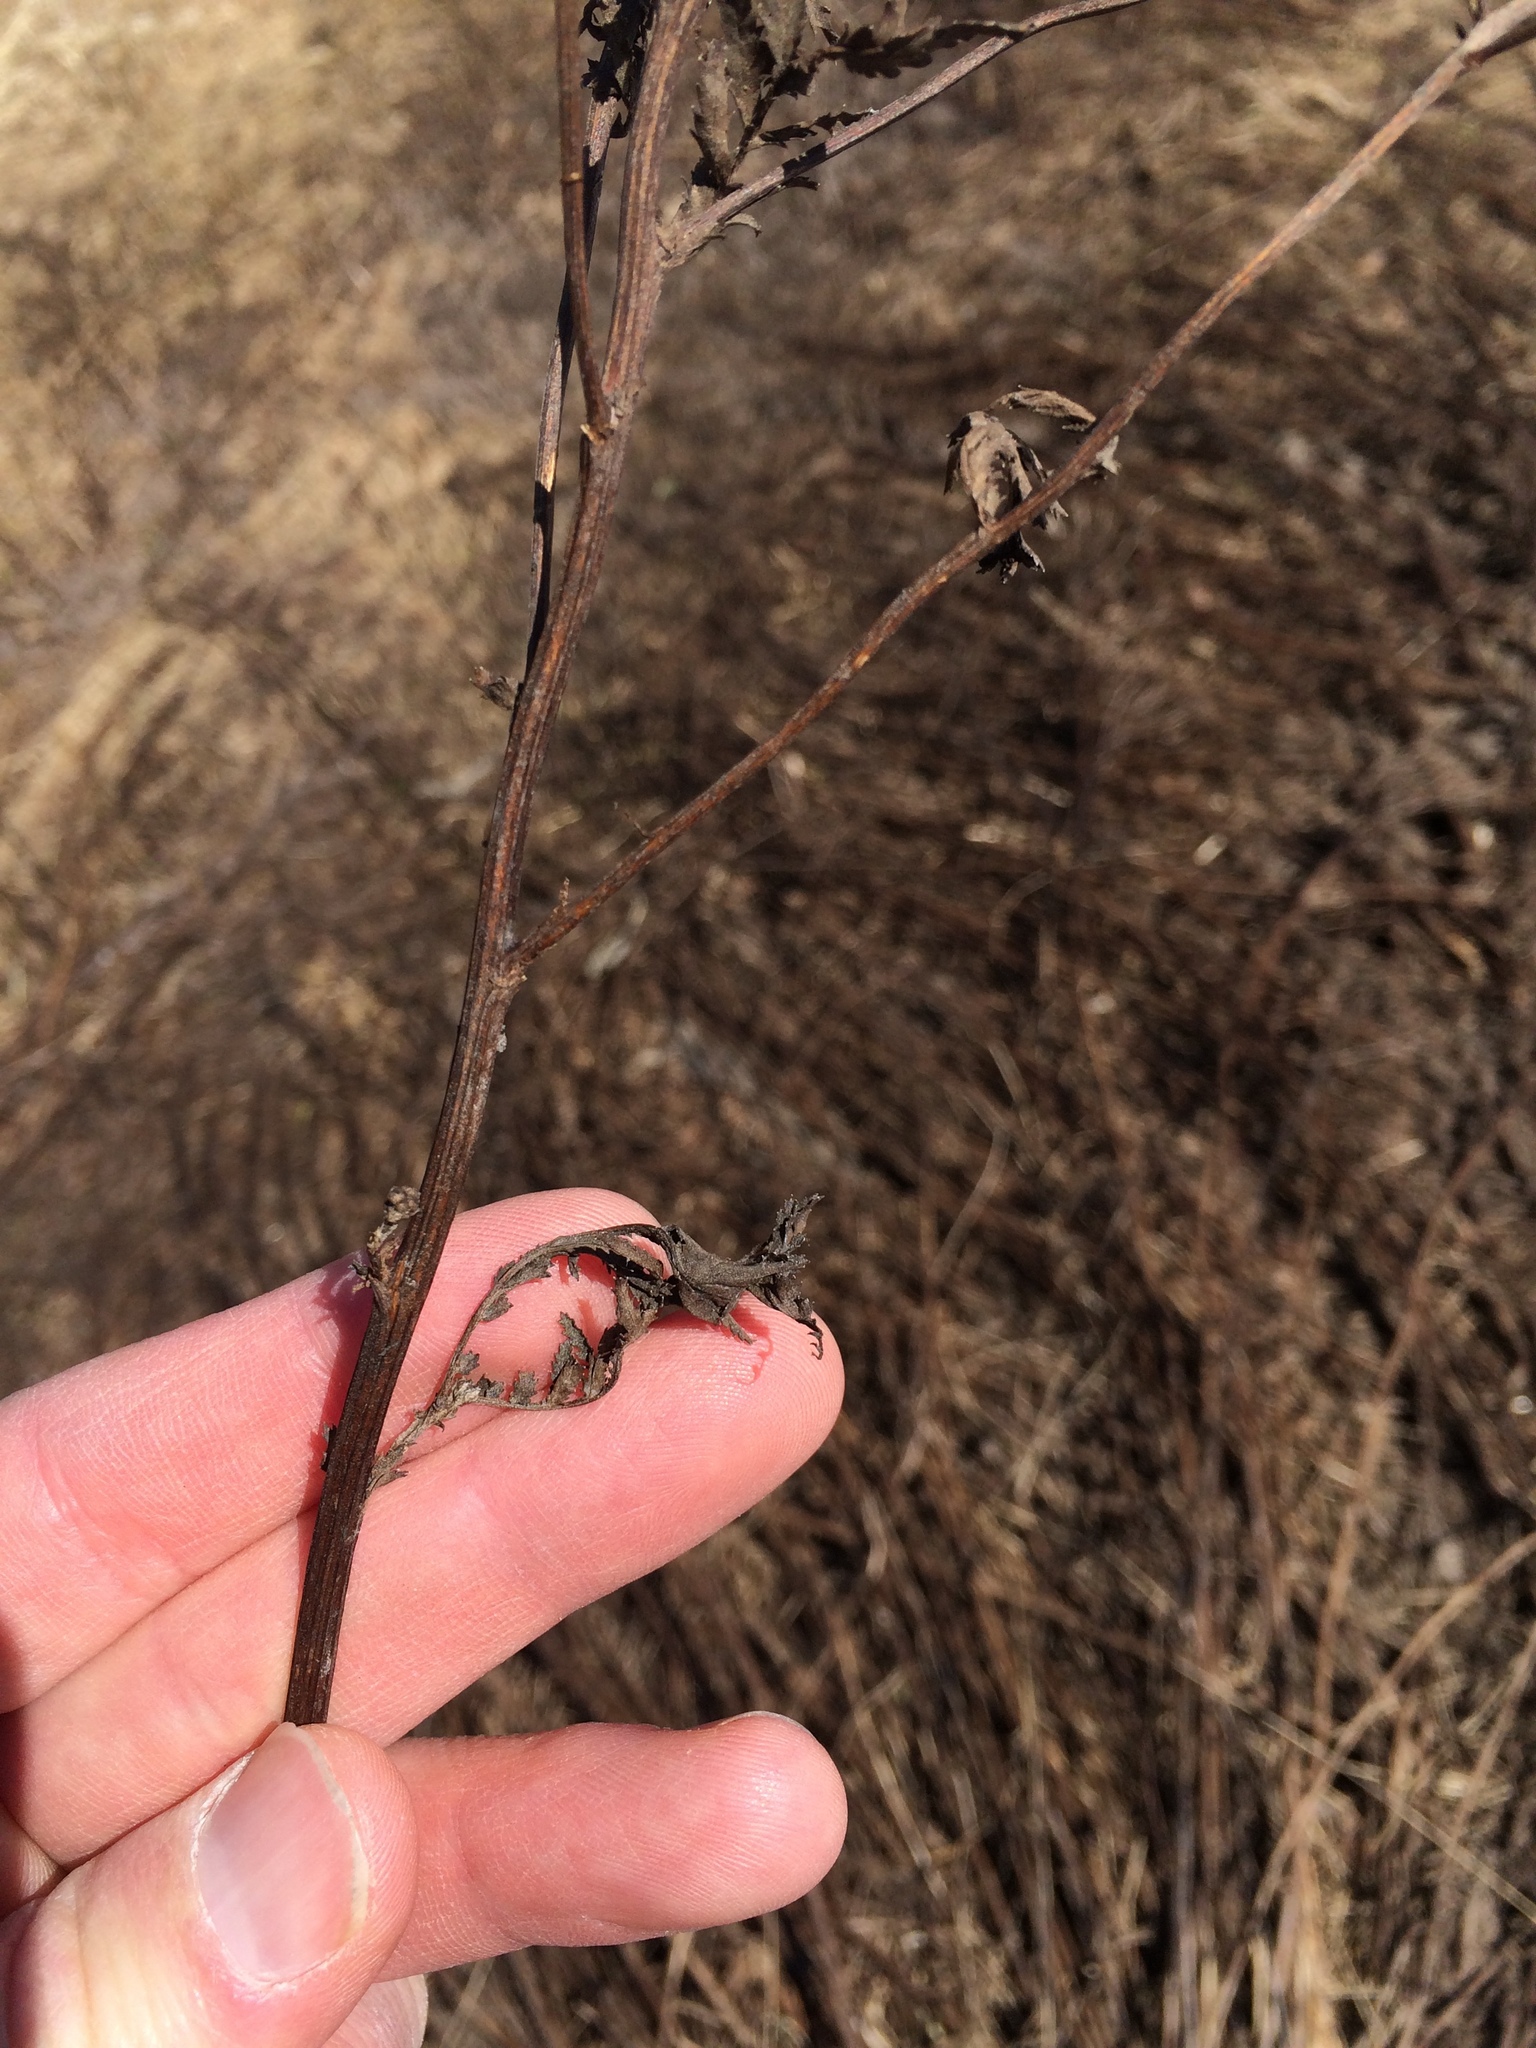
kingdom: Plantae
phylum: Tracheophyta
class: Magnoliopsida
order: Asterales
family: Asteraceae
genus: Tanacetum
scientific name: Tanacetum vulgare
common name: Common tansy
